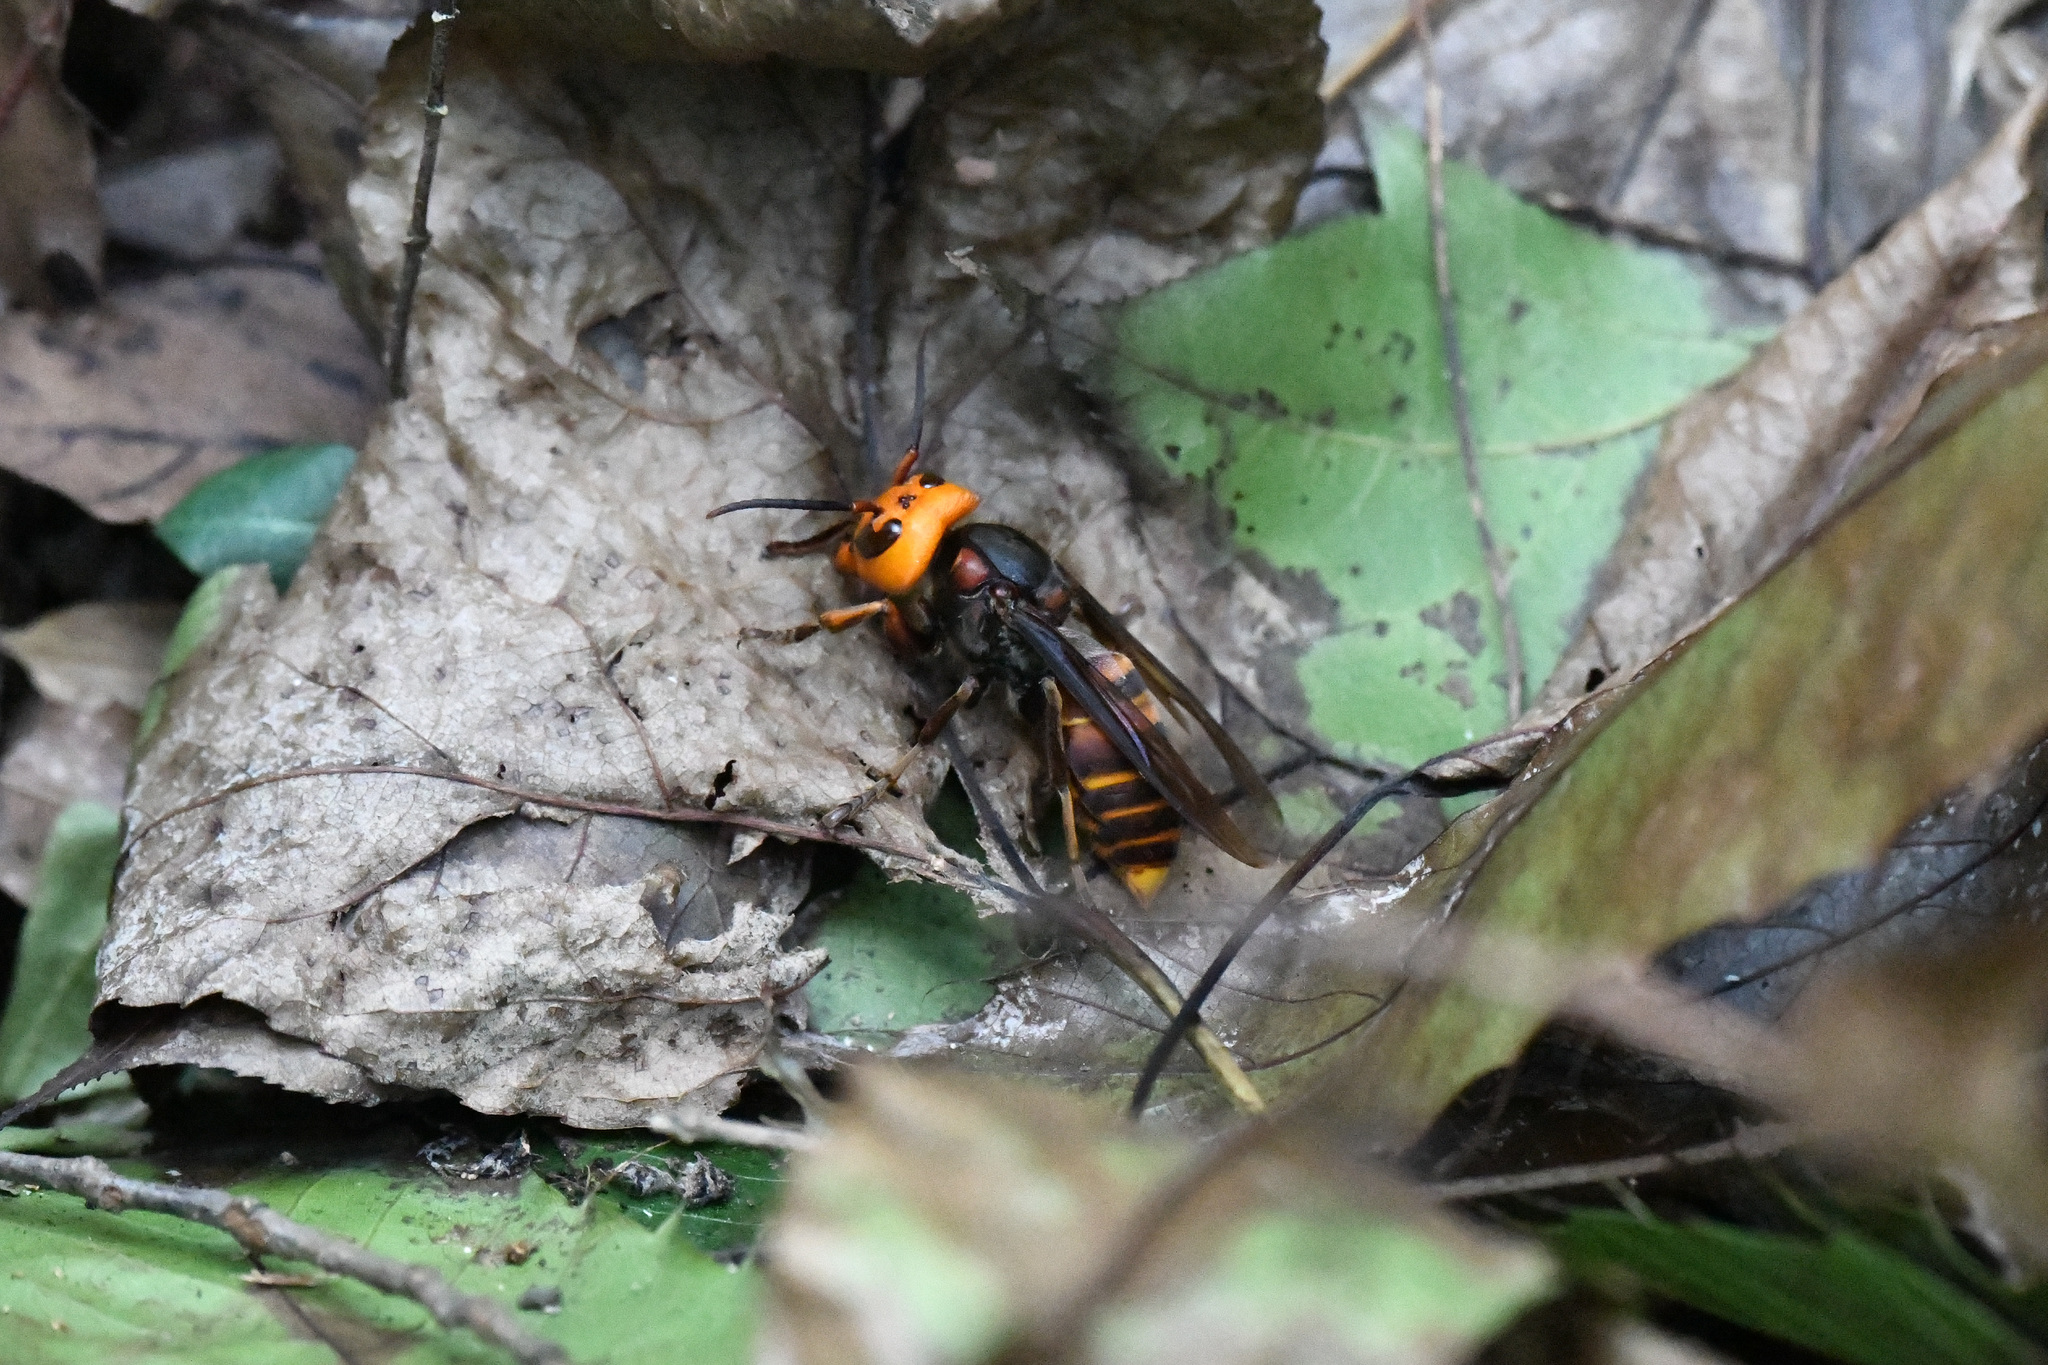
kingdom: Animalia
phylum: Arthropoda
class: Insecta
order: Hymenoptera
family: Vespidae
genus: Vespa
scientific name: Vespa mandarinia
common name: Asian giant hornet
